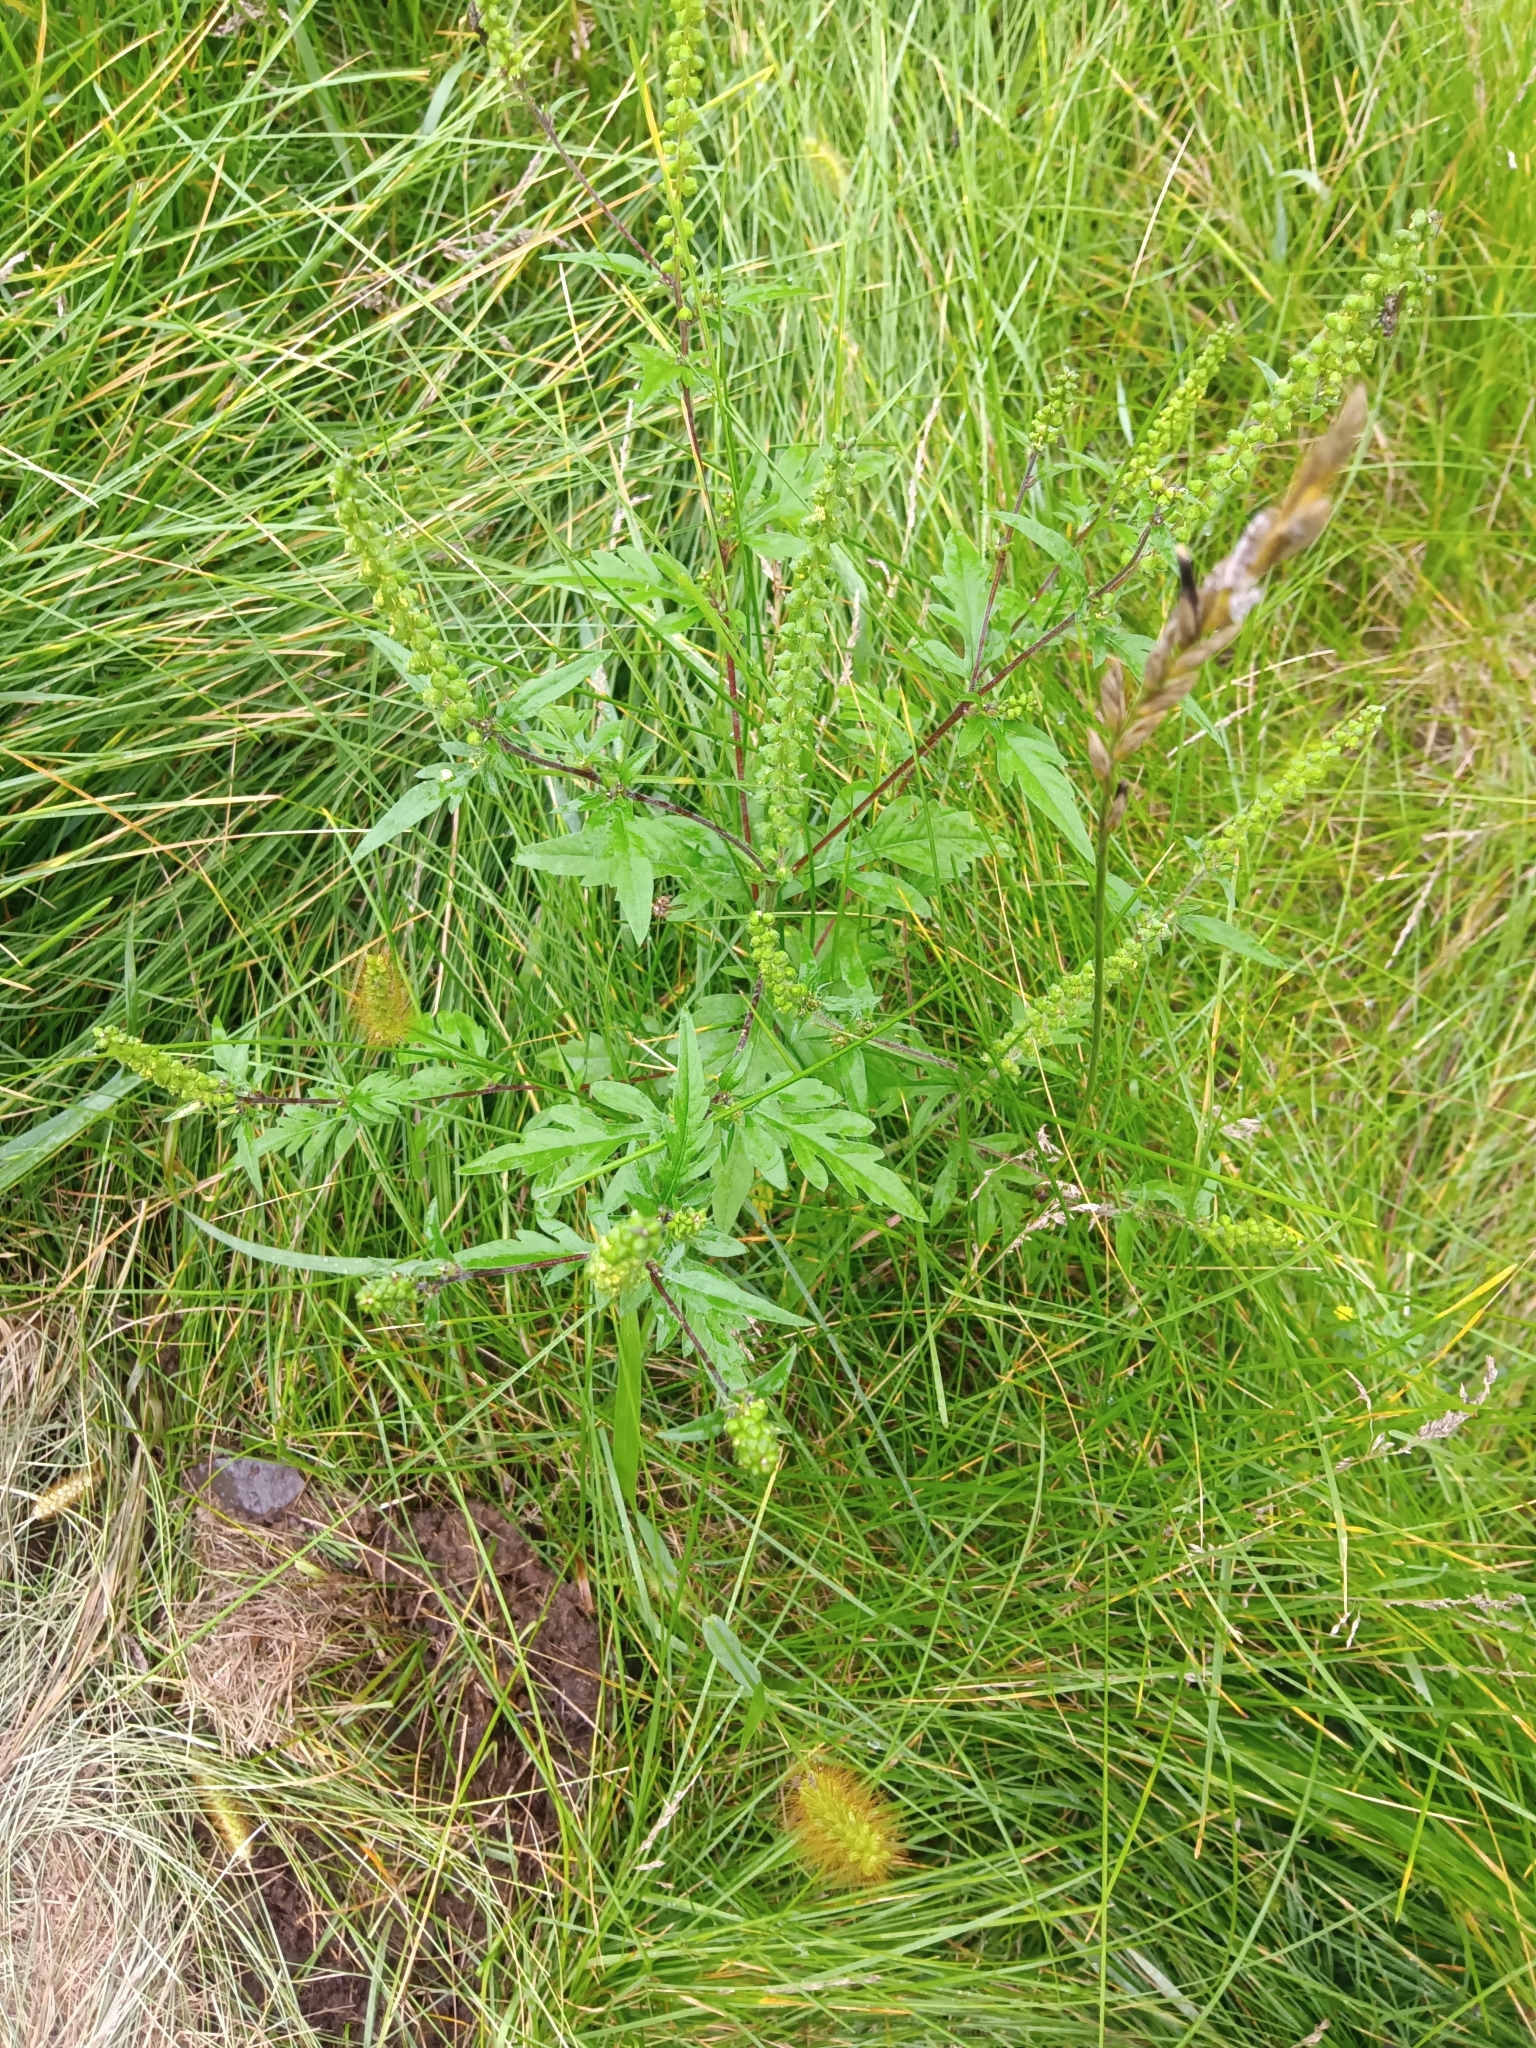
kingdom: Plantae
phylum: Tracheophyta
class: Magnoliopsida
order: Asterales
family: Asteraceae
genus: Ambrosia
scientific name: Ambrosia artemisiifolia
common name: Annual ragweed
